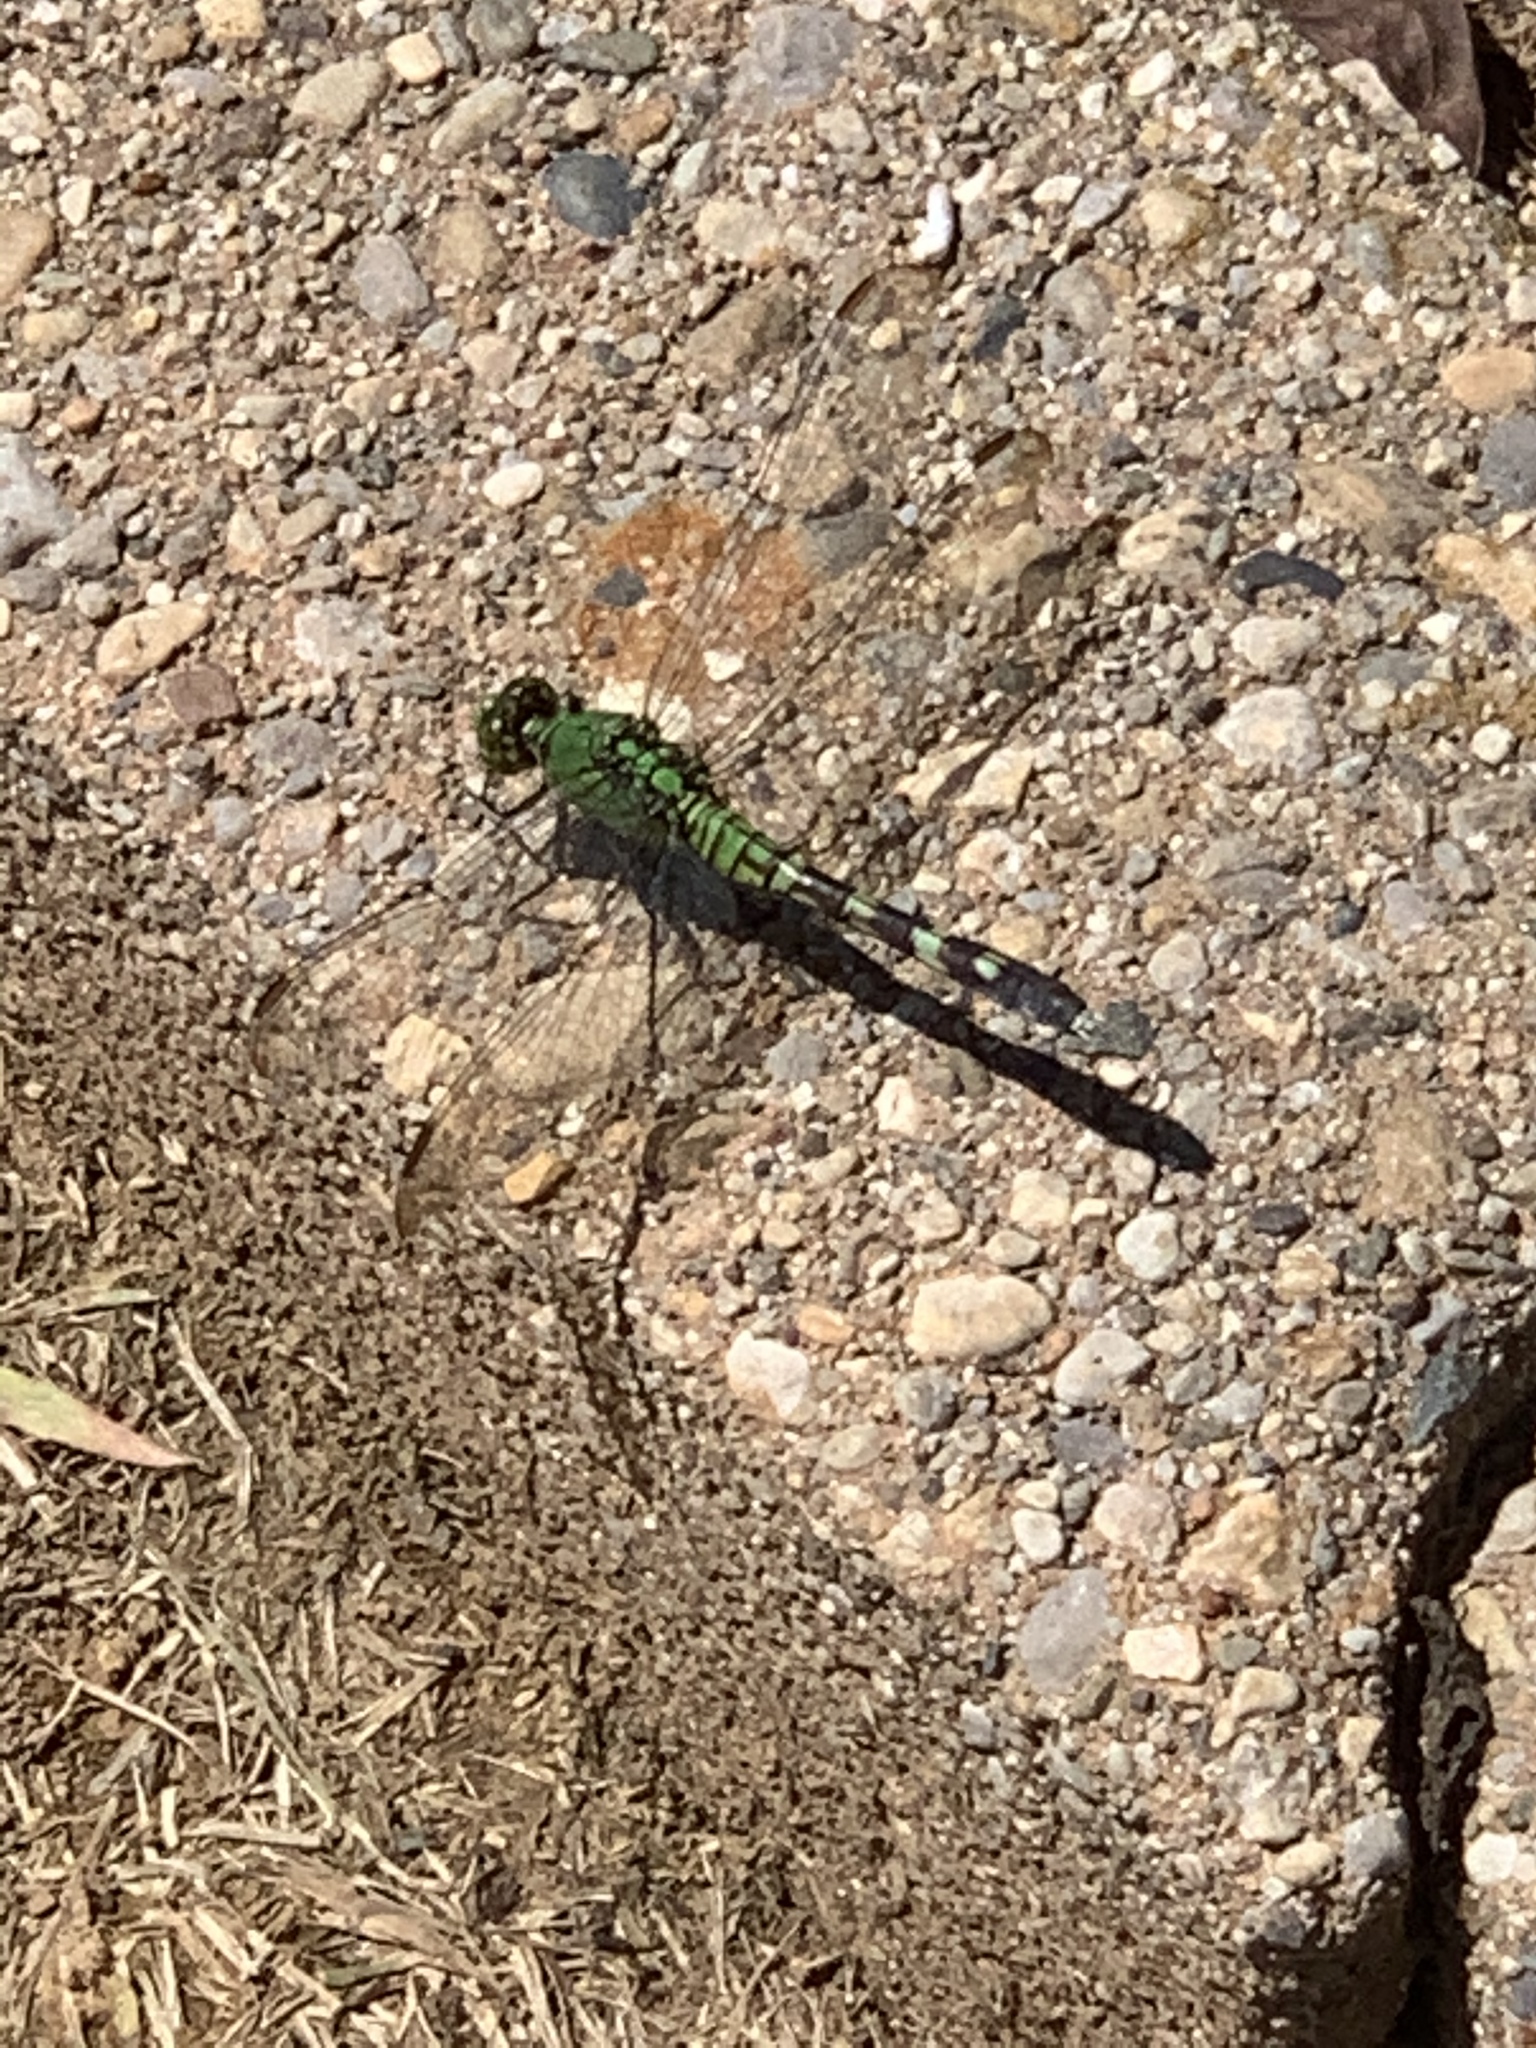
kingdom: Animalia
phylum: Arthropoda
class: Insecta
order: Odonata
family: Libellulidae
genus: Erythemis
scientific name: Erythemis simplicicollis
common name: Eastern pondhawk
